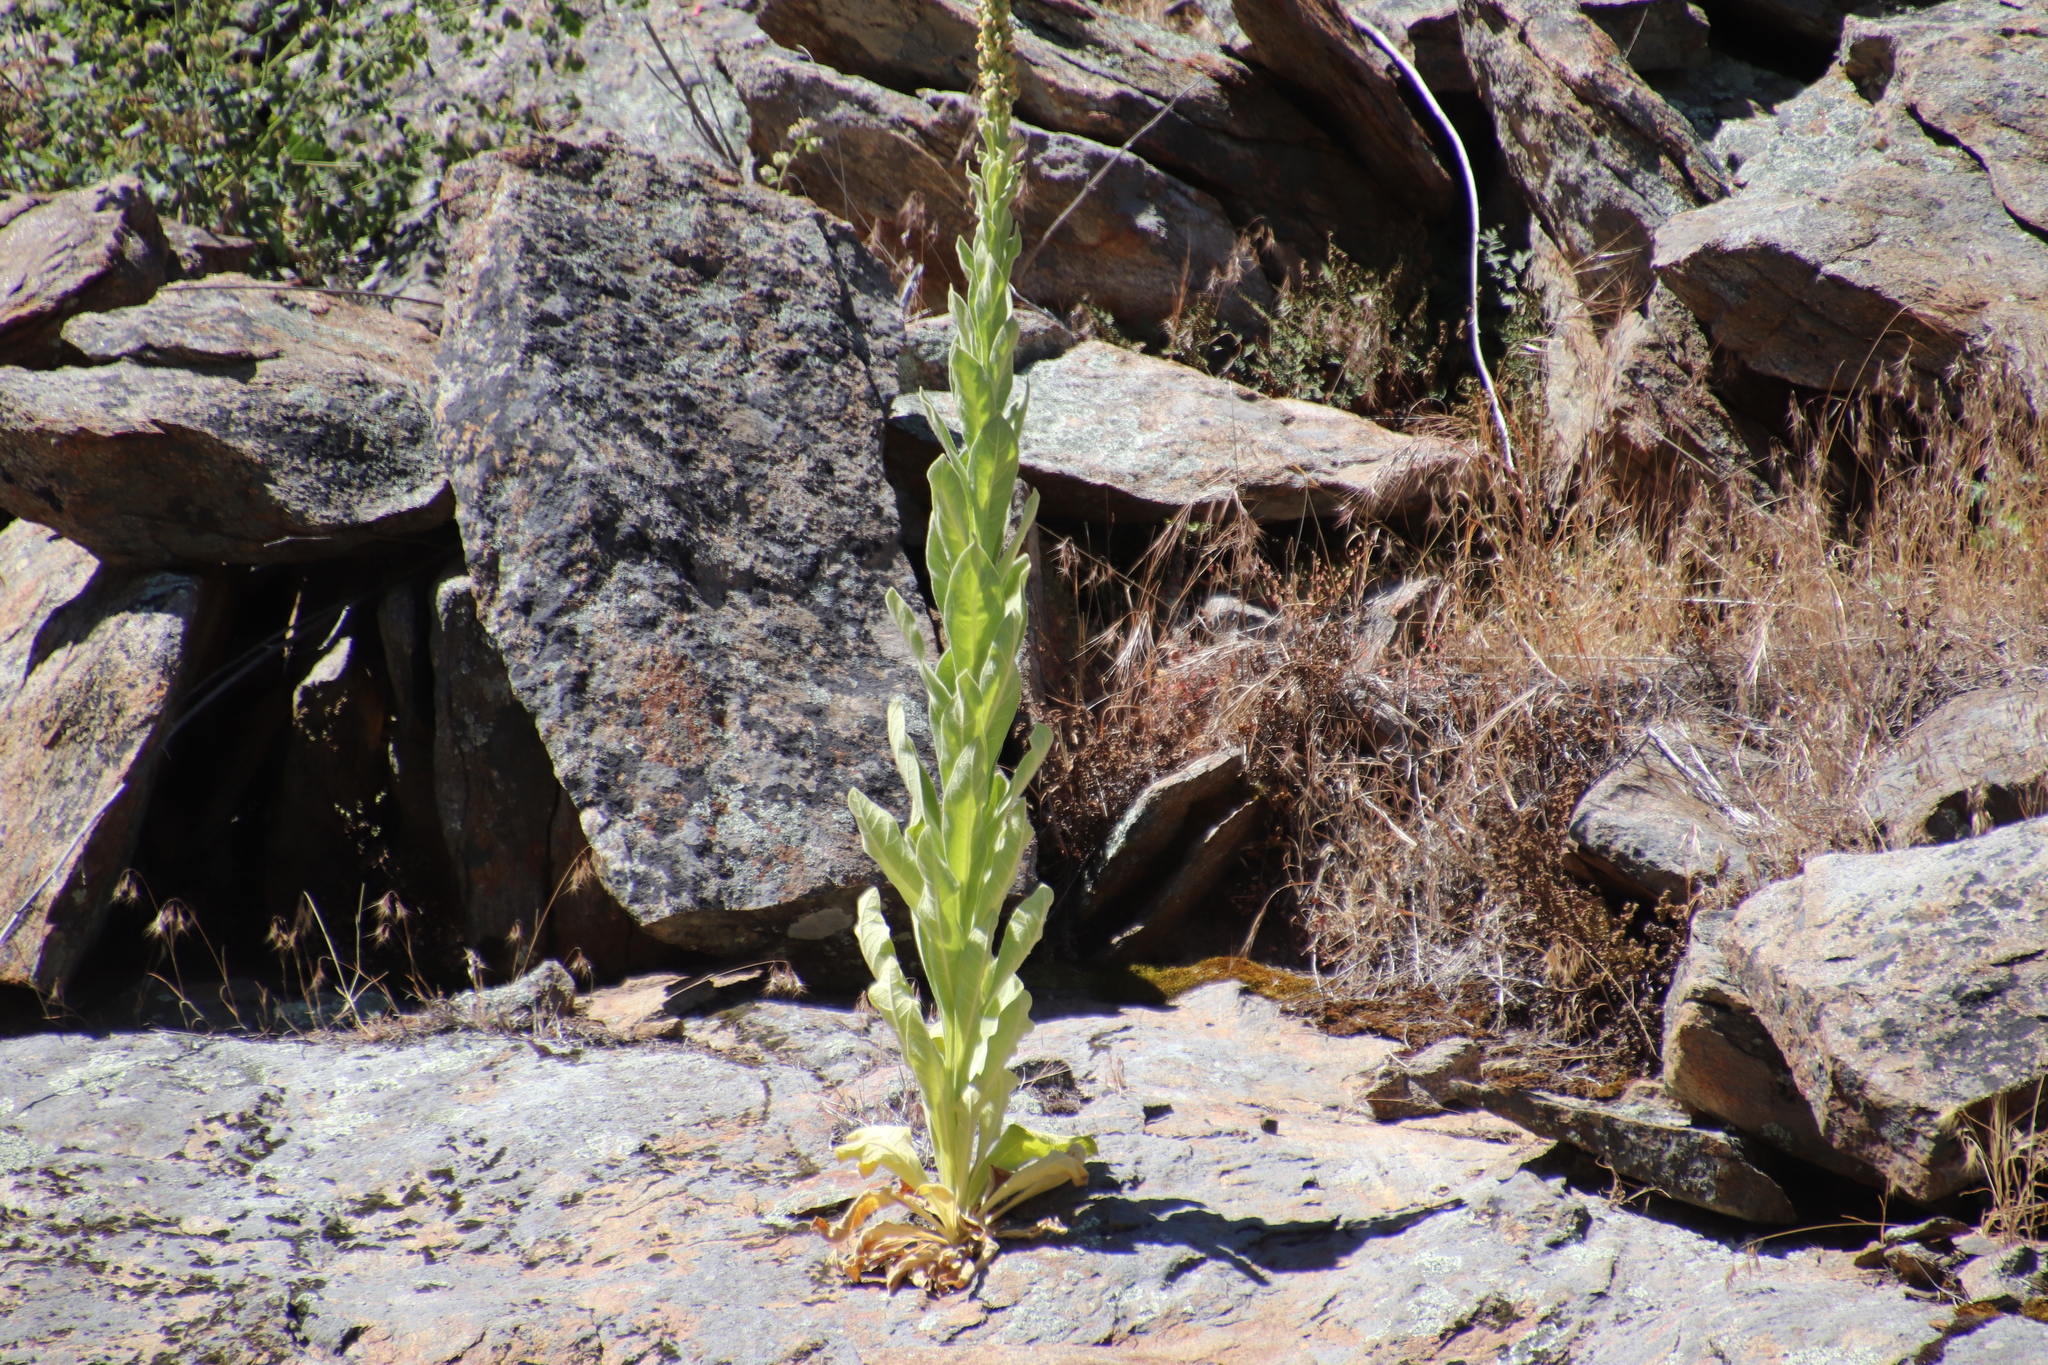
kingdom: Plantae
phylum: Tracheophyta
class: Magnoliopsida
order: Lamiales
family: Scrophulariaceae
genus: Verbascum
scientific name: Verbascum thapsus
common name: Common mullein
